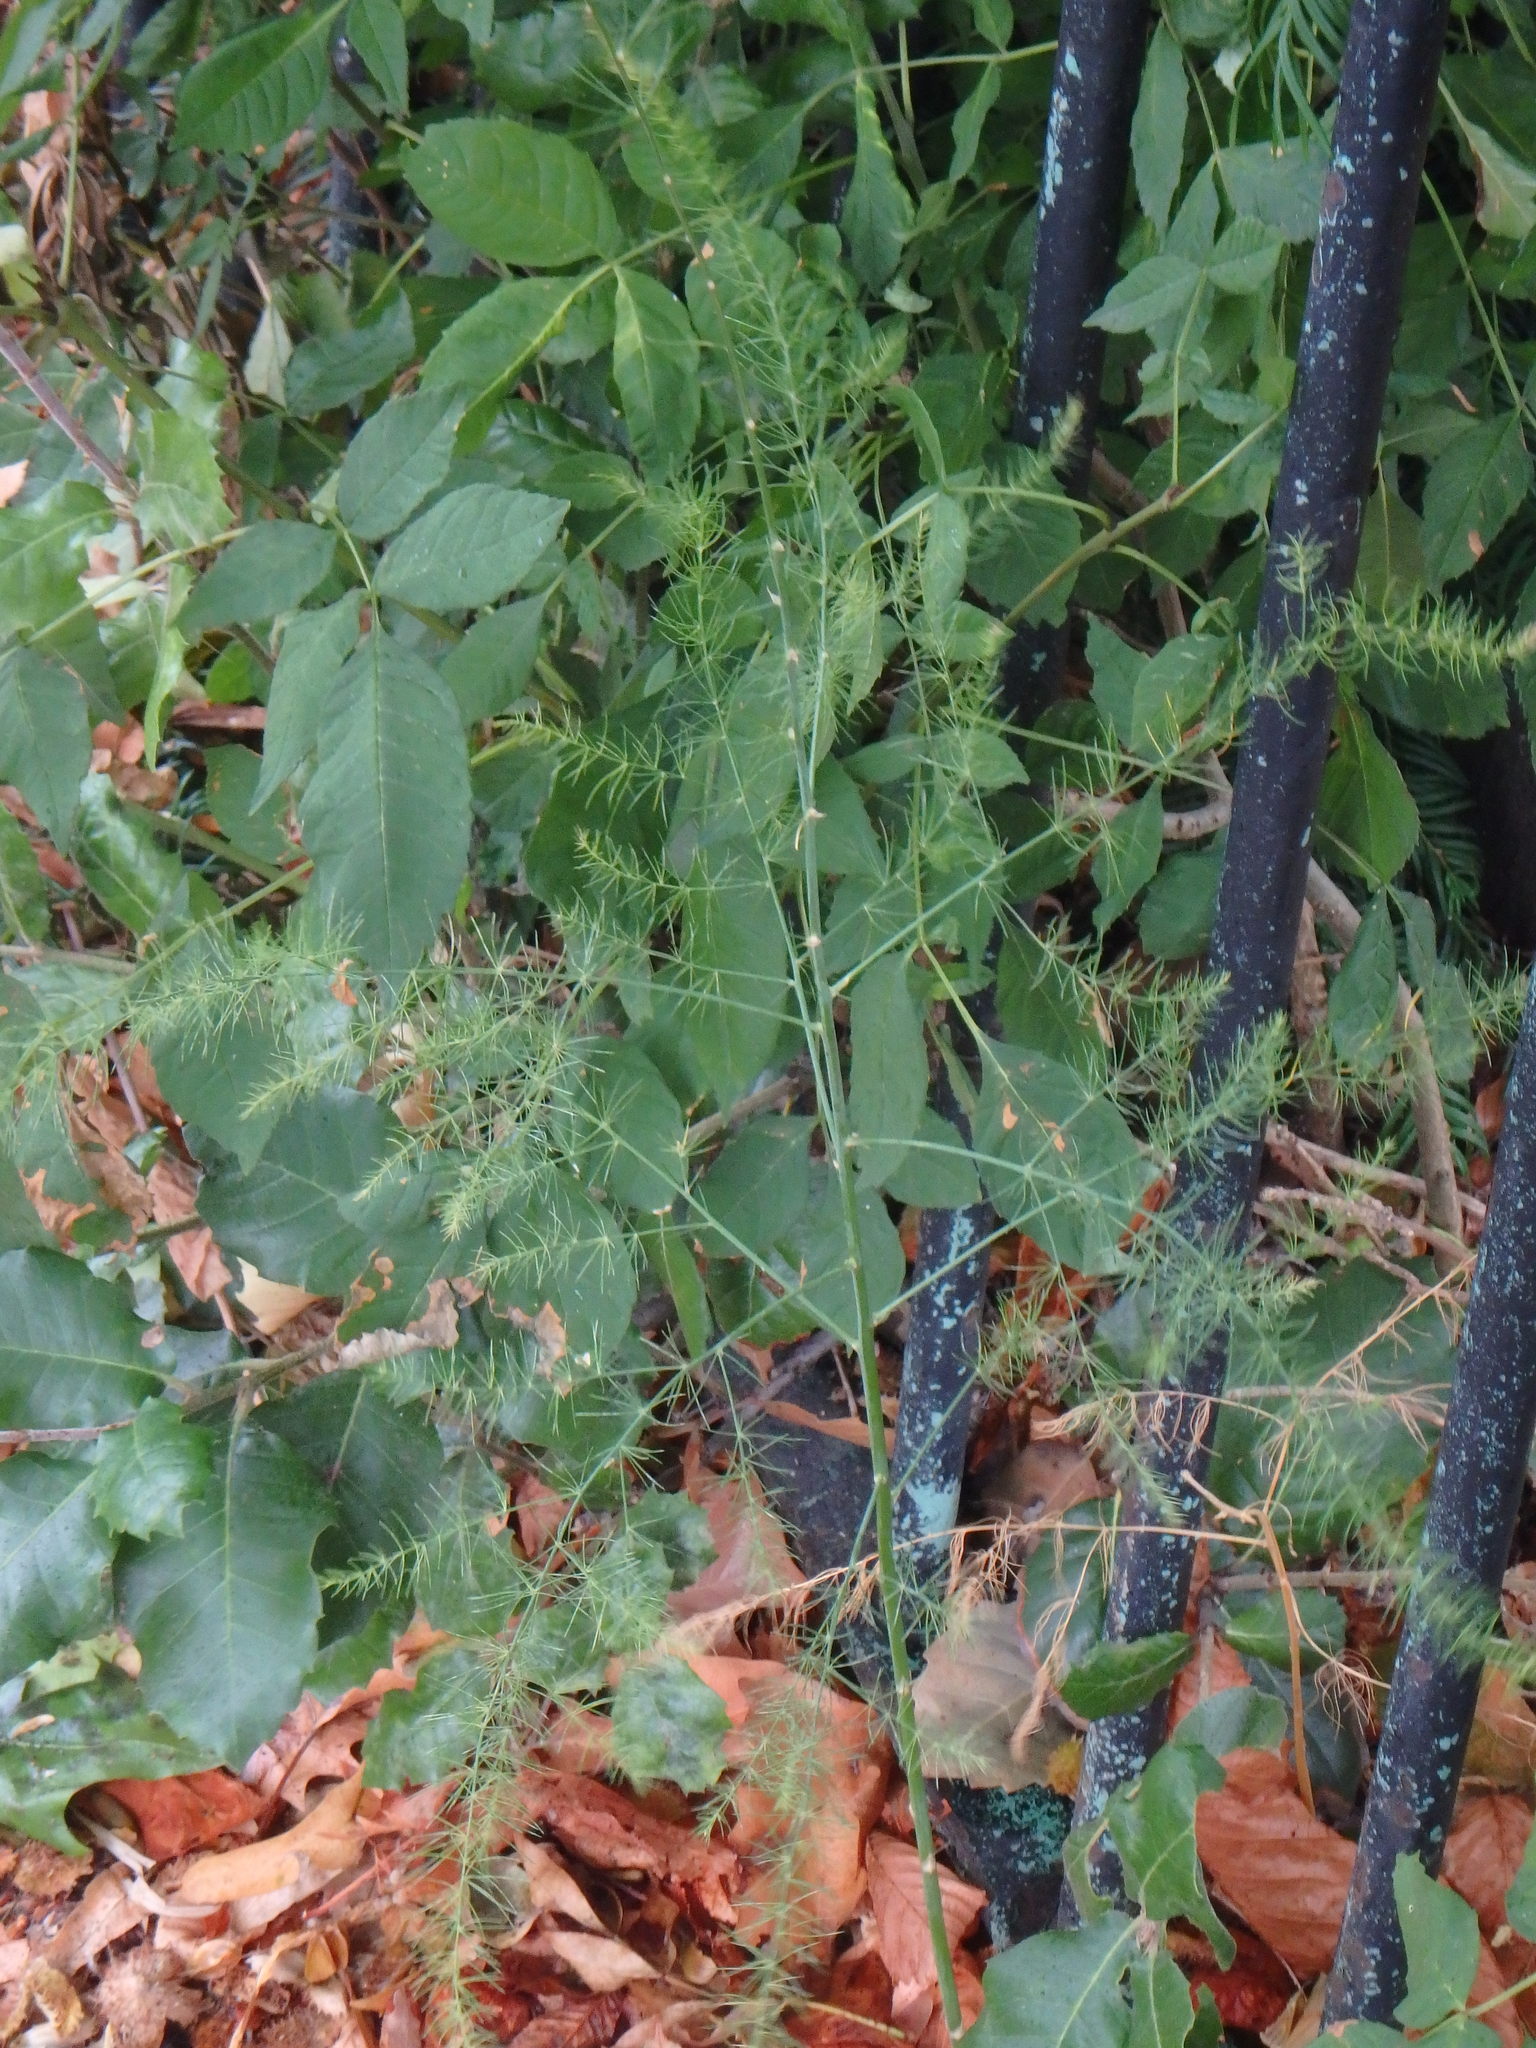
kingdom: Plantae
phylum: Tracheophyta
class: Liliopsida
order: Asparagales
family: Asparagaceae
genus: Asparagus
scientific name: Asparagus officinalis
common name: Garden asparagus
